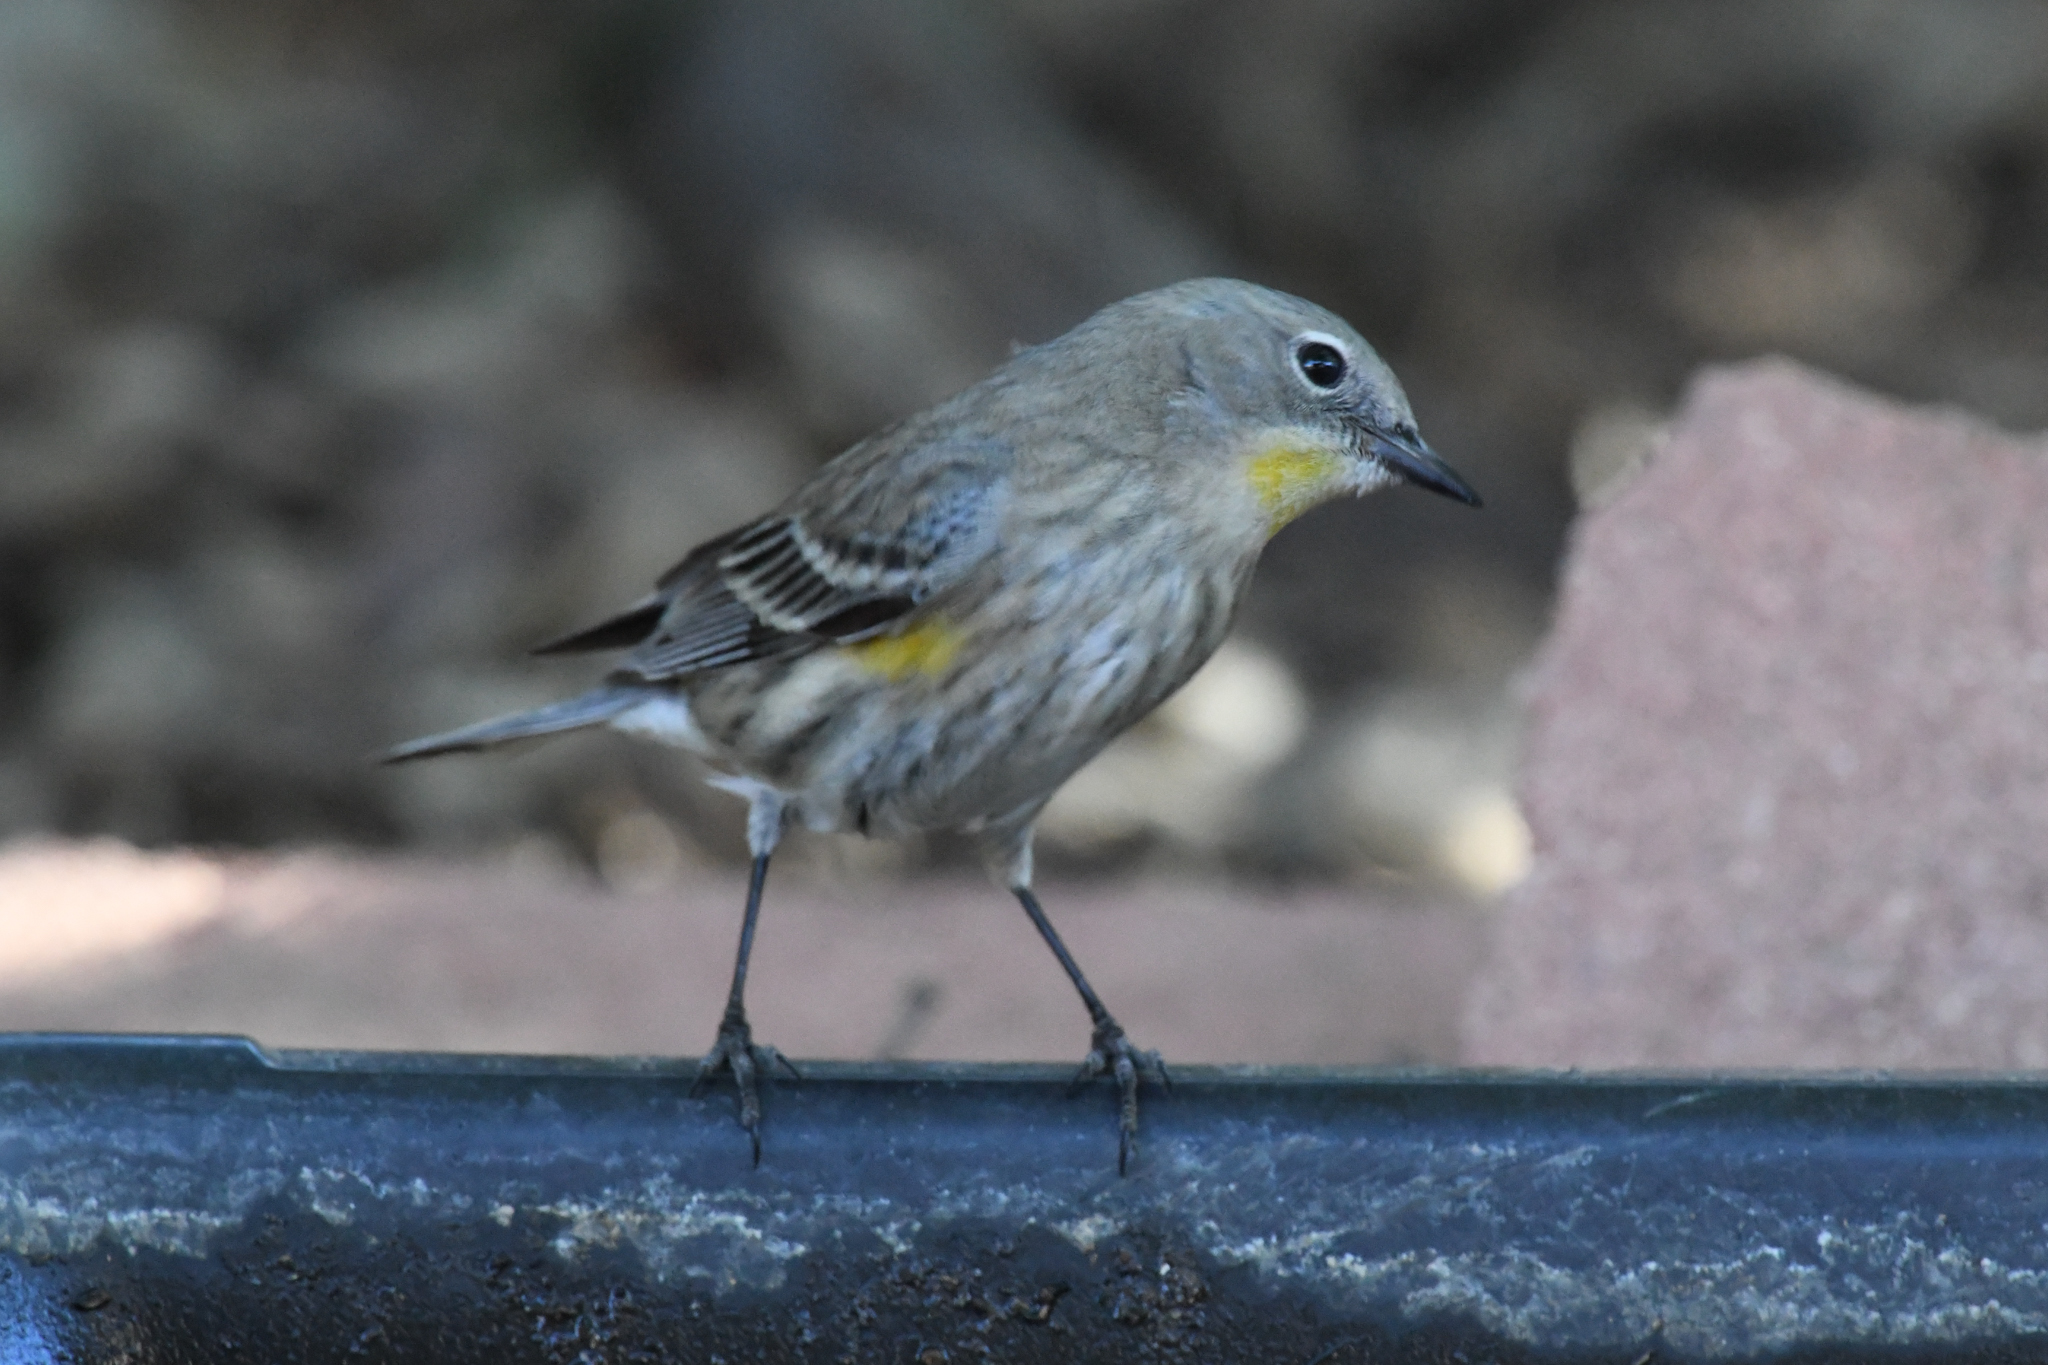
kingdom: Animalia
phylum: Chordata
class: Aves
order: Passeriformes
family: Parulidae
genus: Setophaga
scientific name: Setophaga coronata
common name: Myrtle warbler
